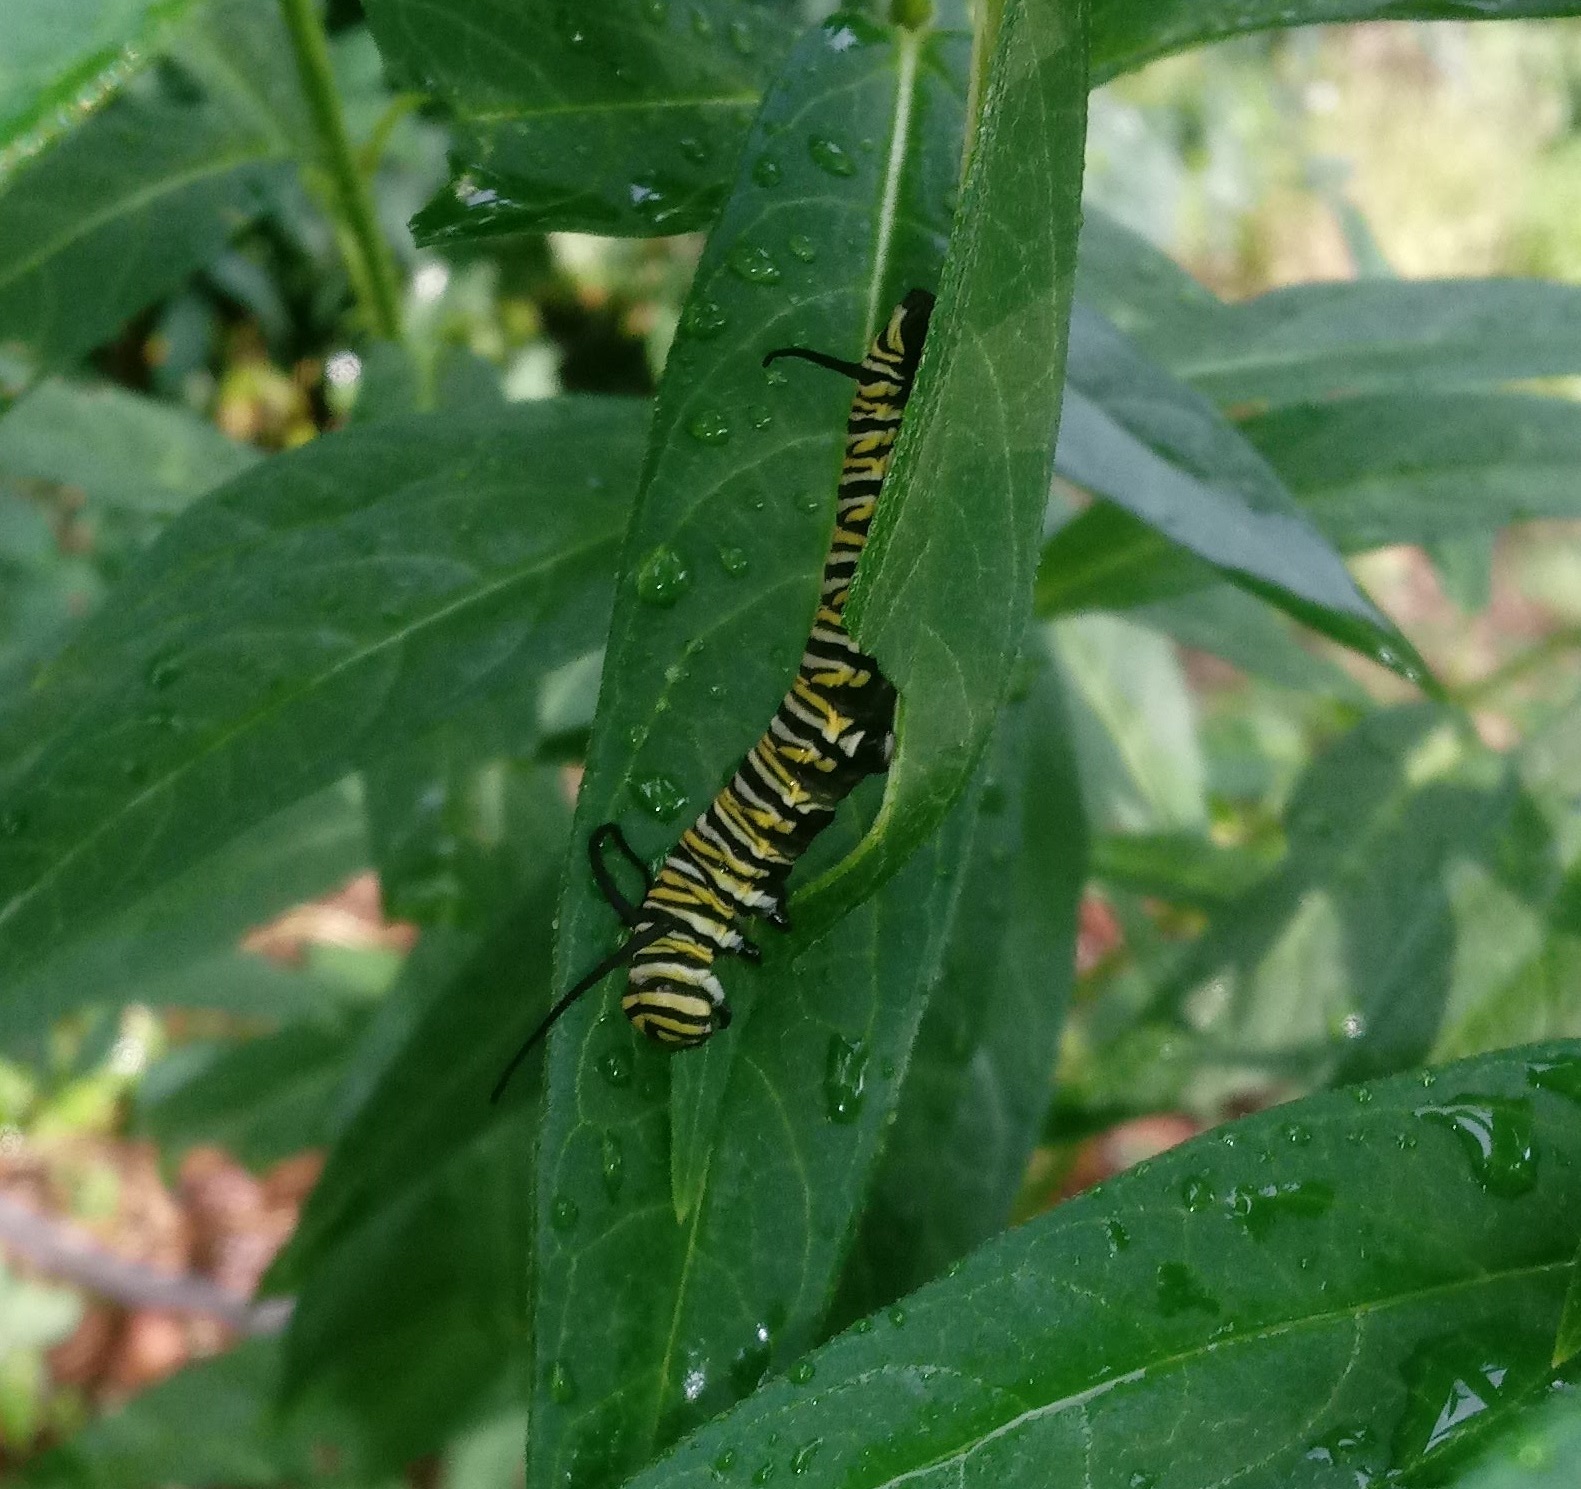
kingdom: Animalia
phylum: Arthropoda
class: Insecta
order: Lepidoptera
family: Nymphalidae
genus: Danaus
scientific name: Danaus plexippus
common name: Monarch
